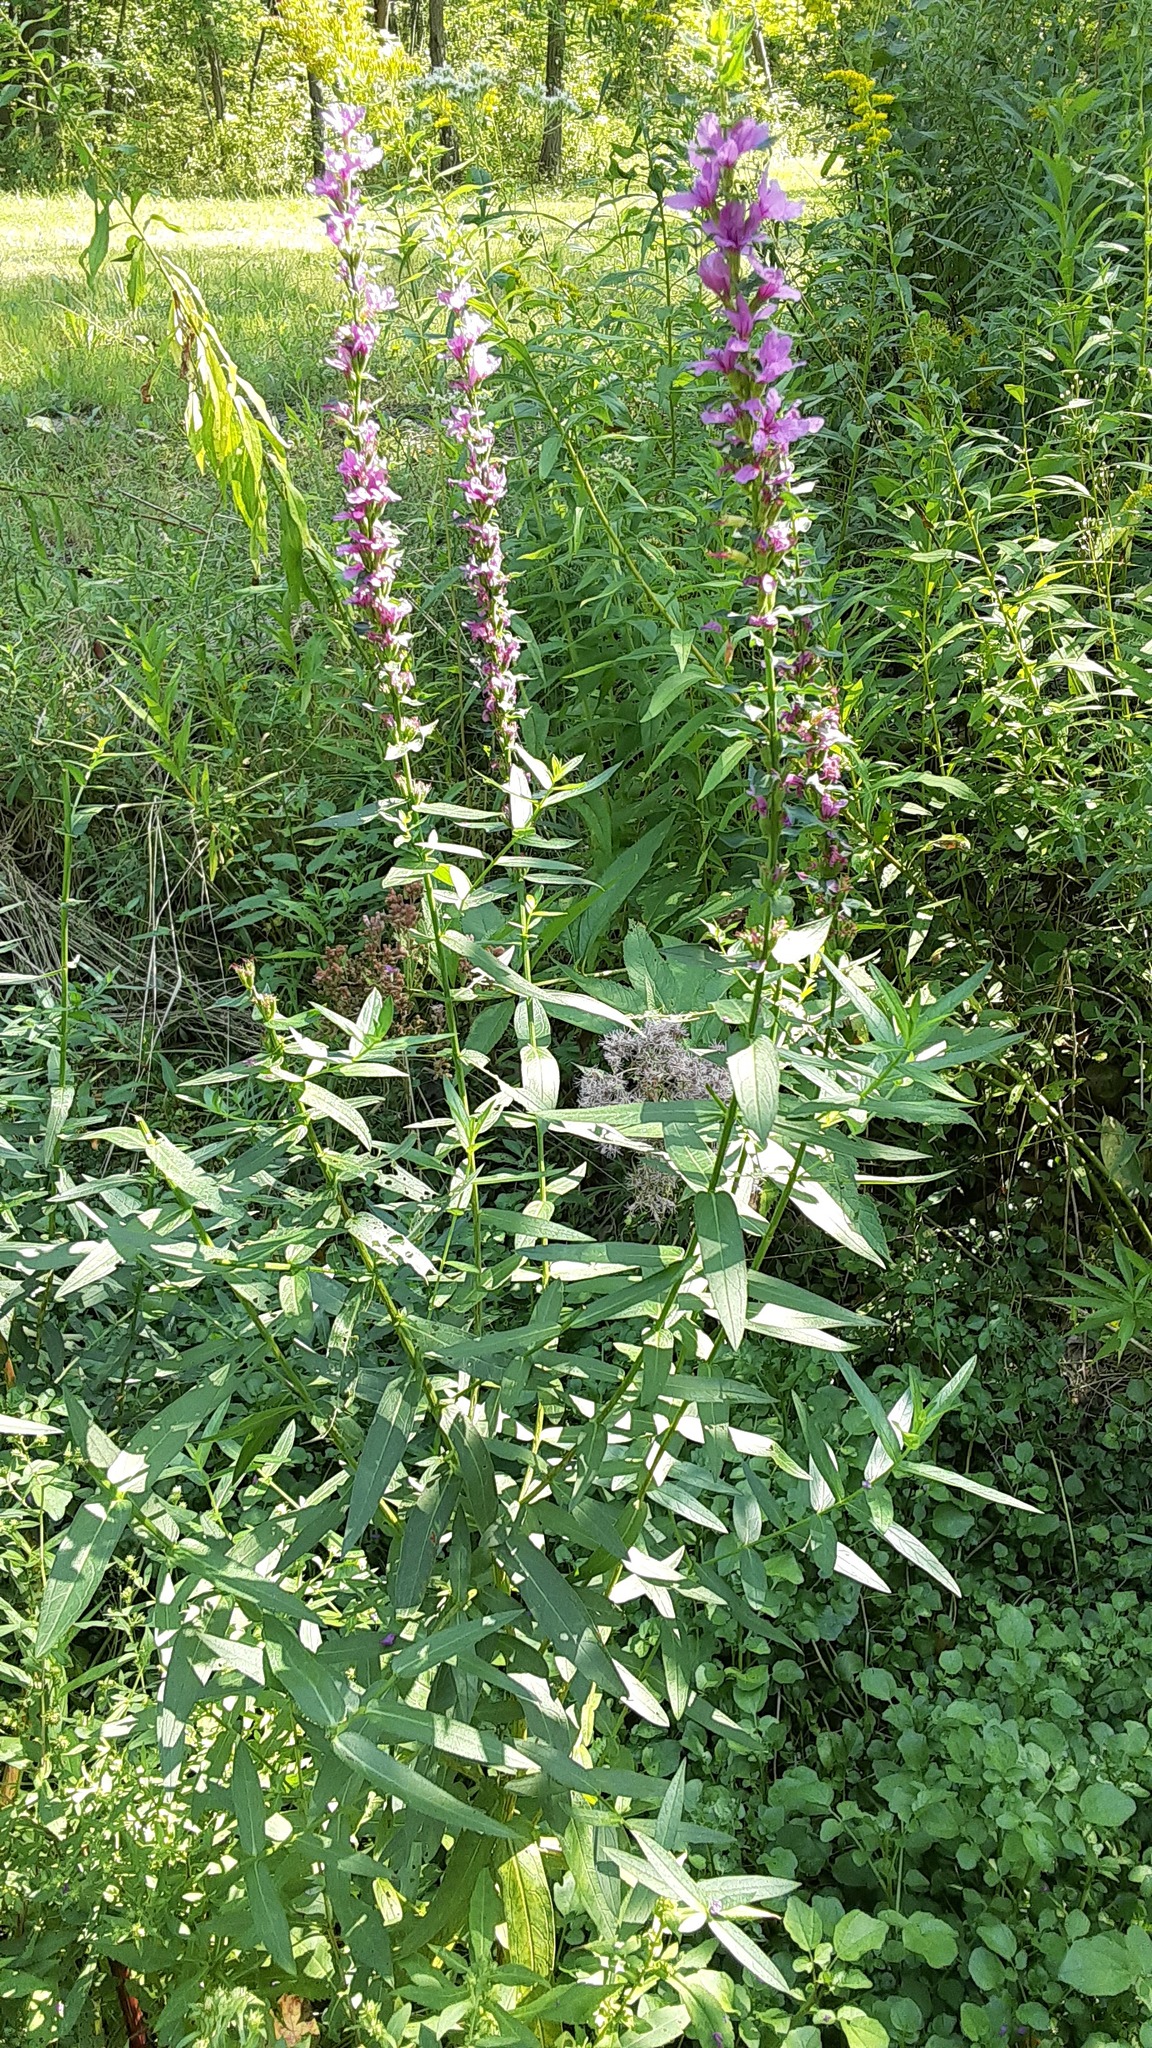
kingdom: Plantae
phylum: Tracheophyta
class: Magnoliopsida
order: Myrtales
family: Lythraceae
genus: Lythrum
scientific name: Lythrum salicaria
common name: Purple loosestrife
